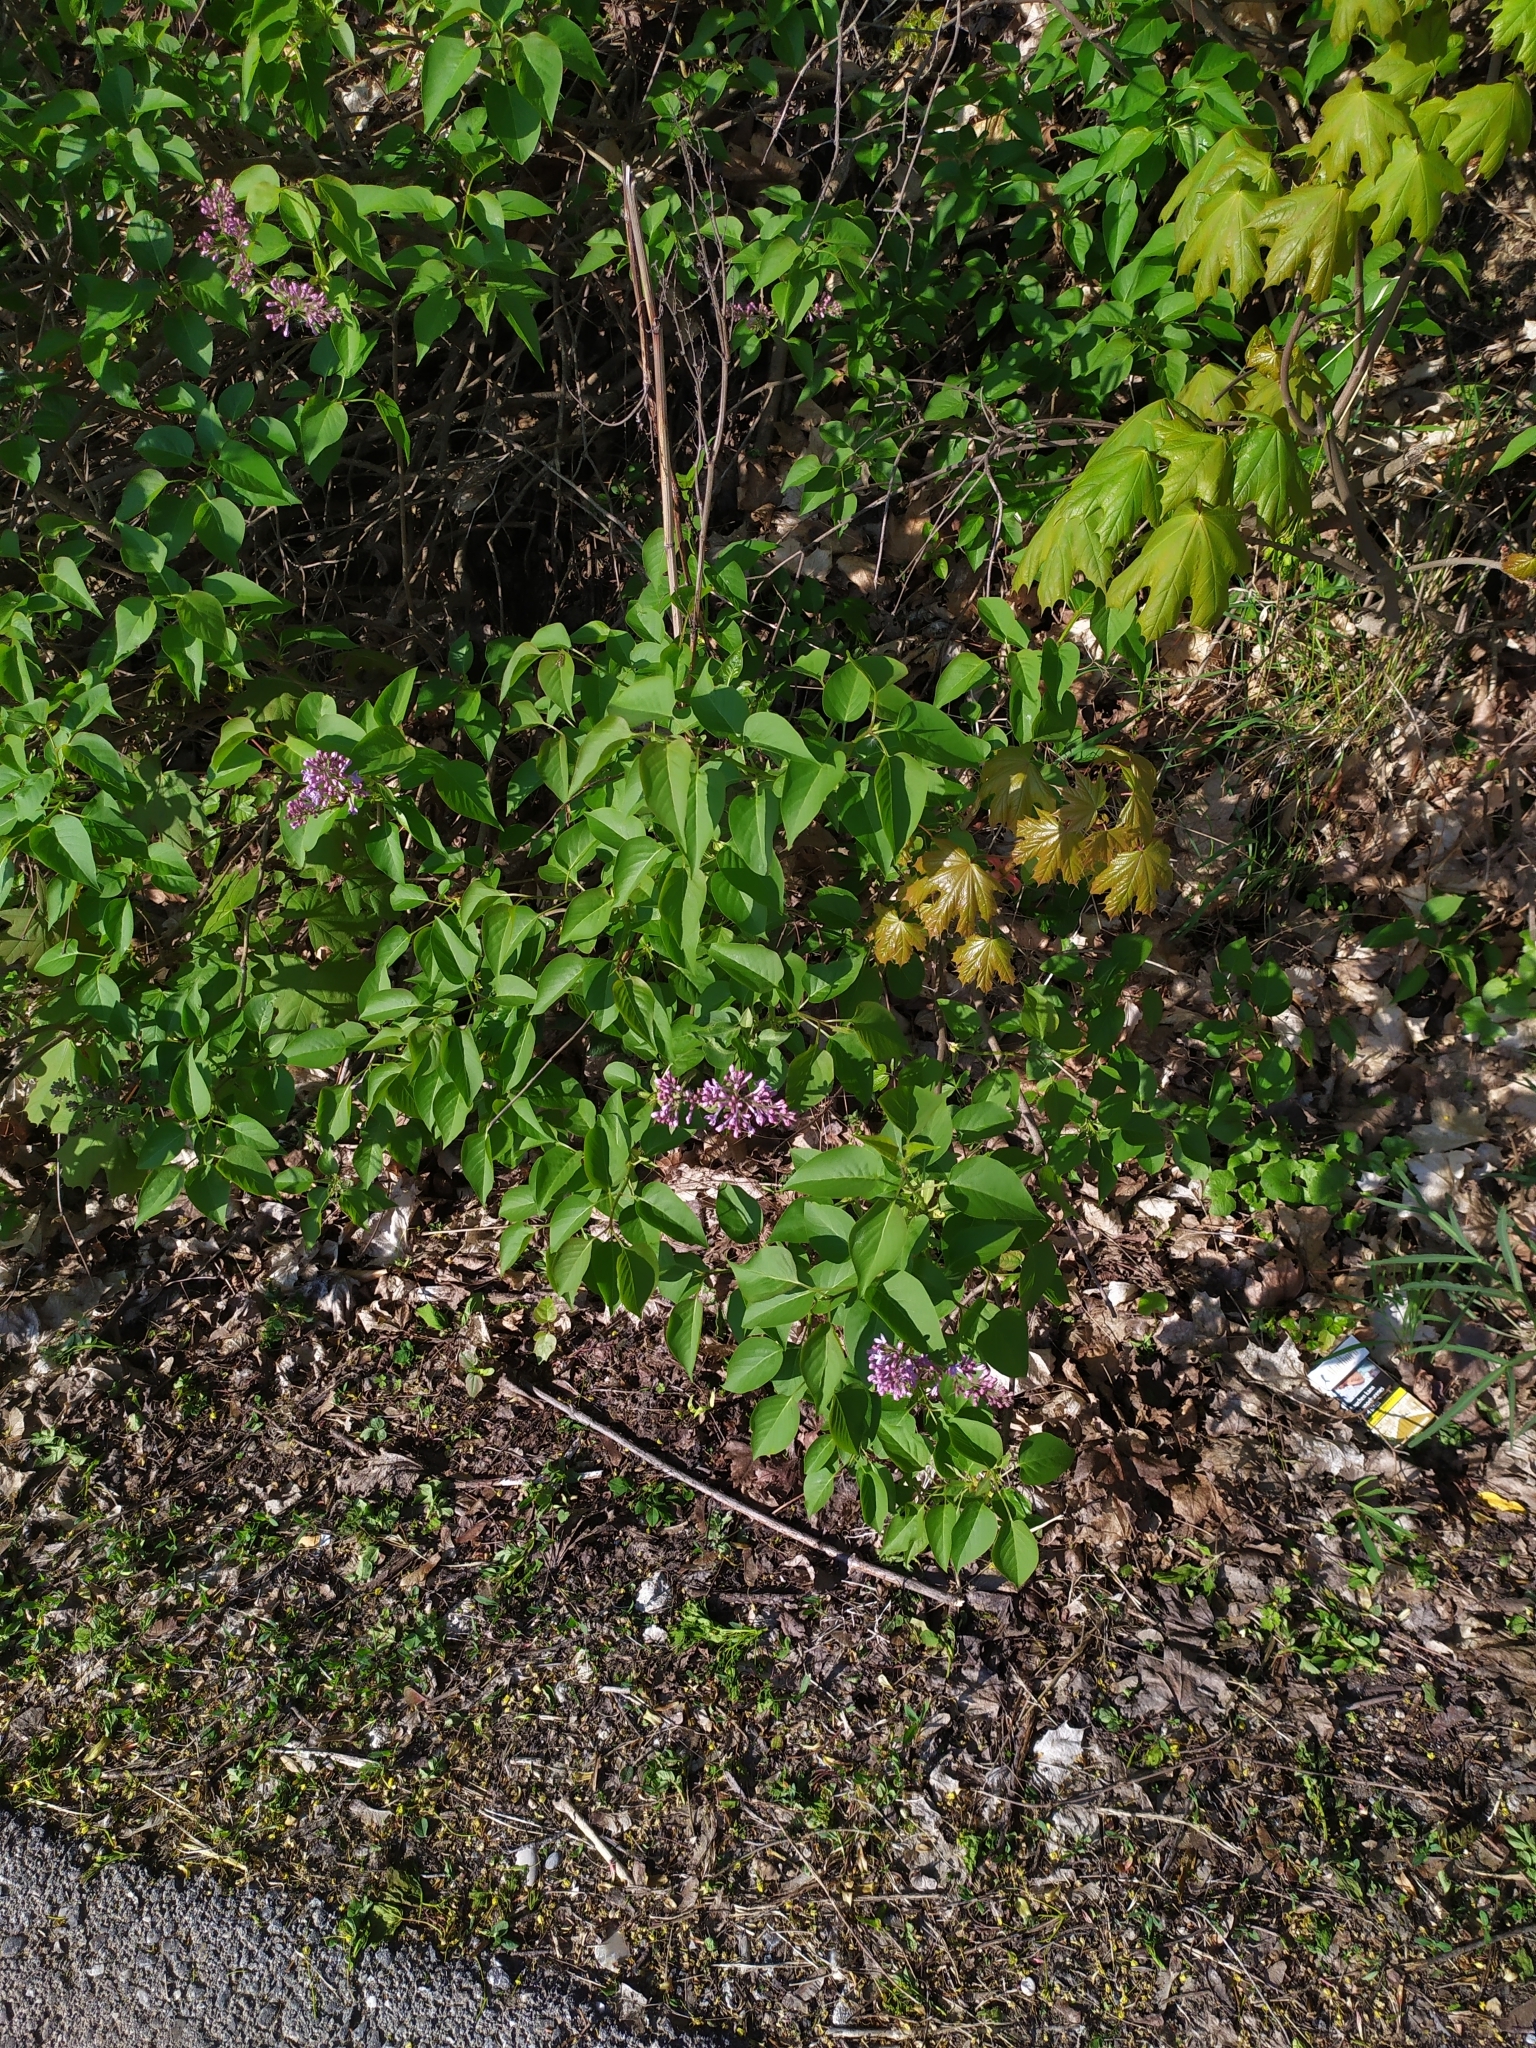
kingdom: Plantae
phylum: Tracheophyta
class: Magnoliopsida
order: Lamiales
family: Oleaceae
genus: Syringa
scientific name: Syringa vulgaris
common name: Common lilac
